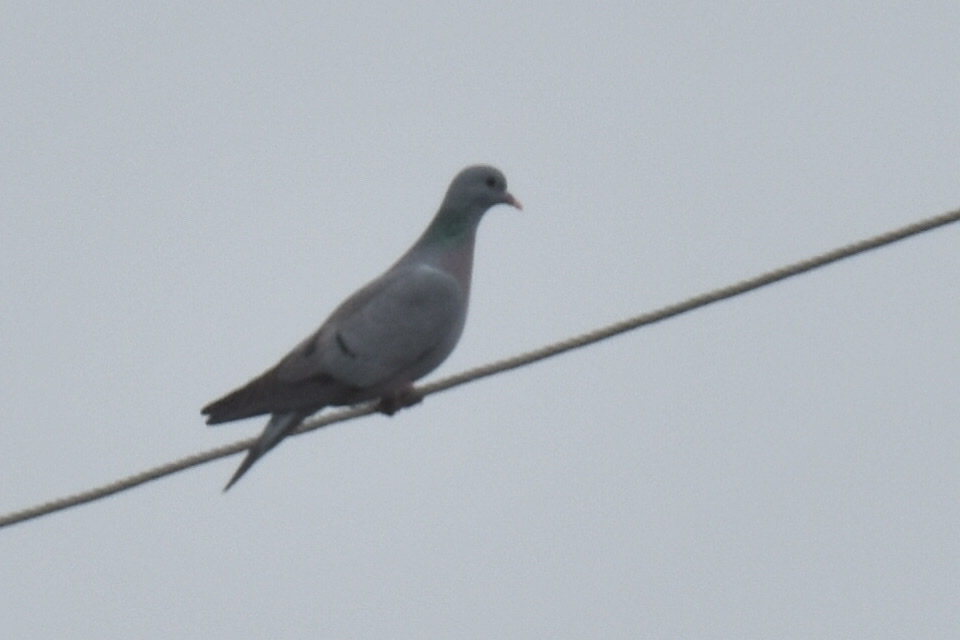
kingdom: Animalia
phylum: Chordata
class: Aves
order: Columbiformes
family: Columbidae
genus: Columba
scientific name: Columba oenas
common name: Stock dove
